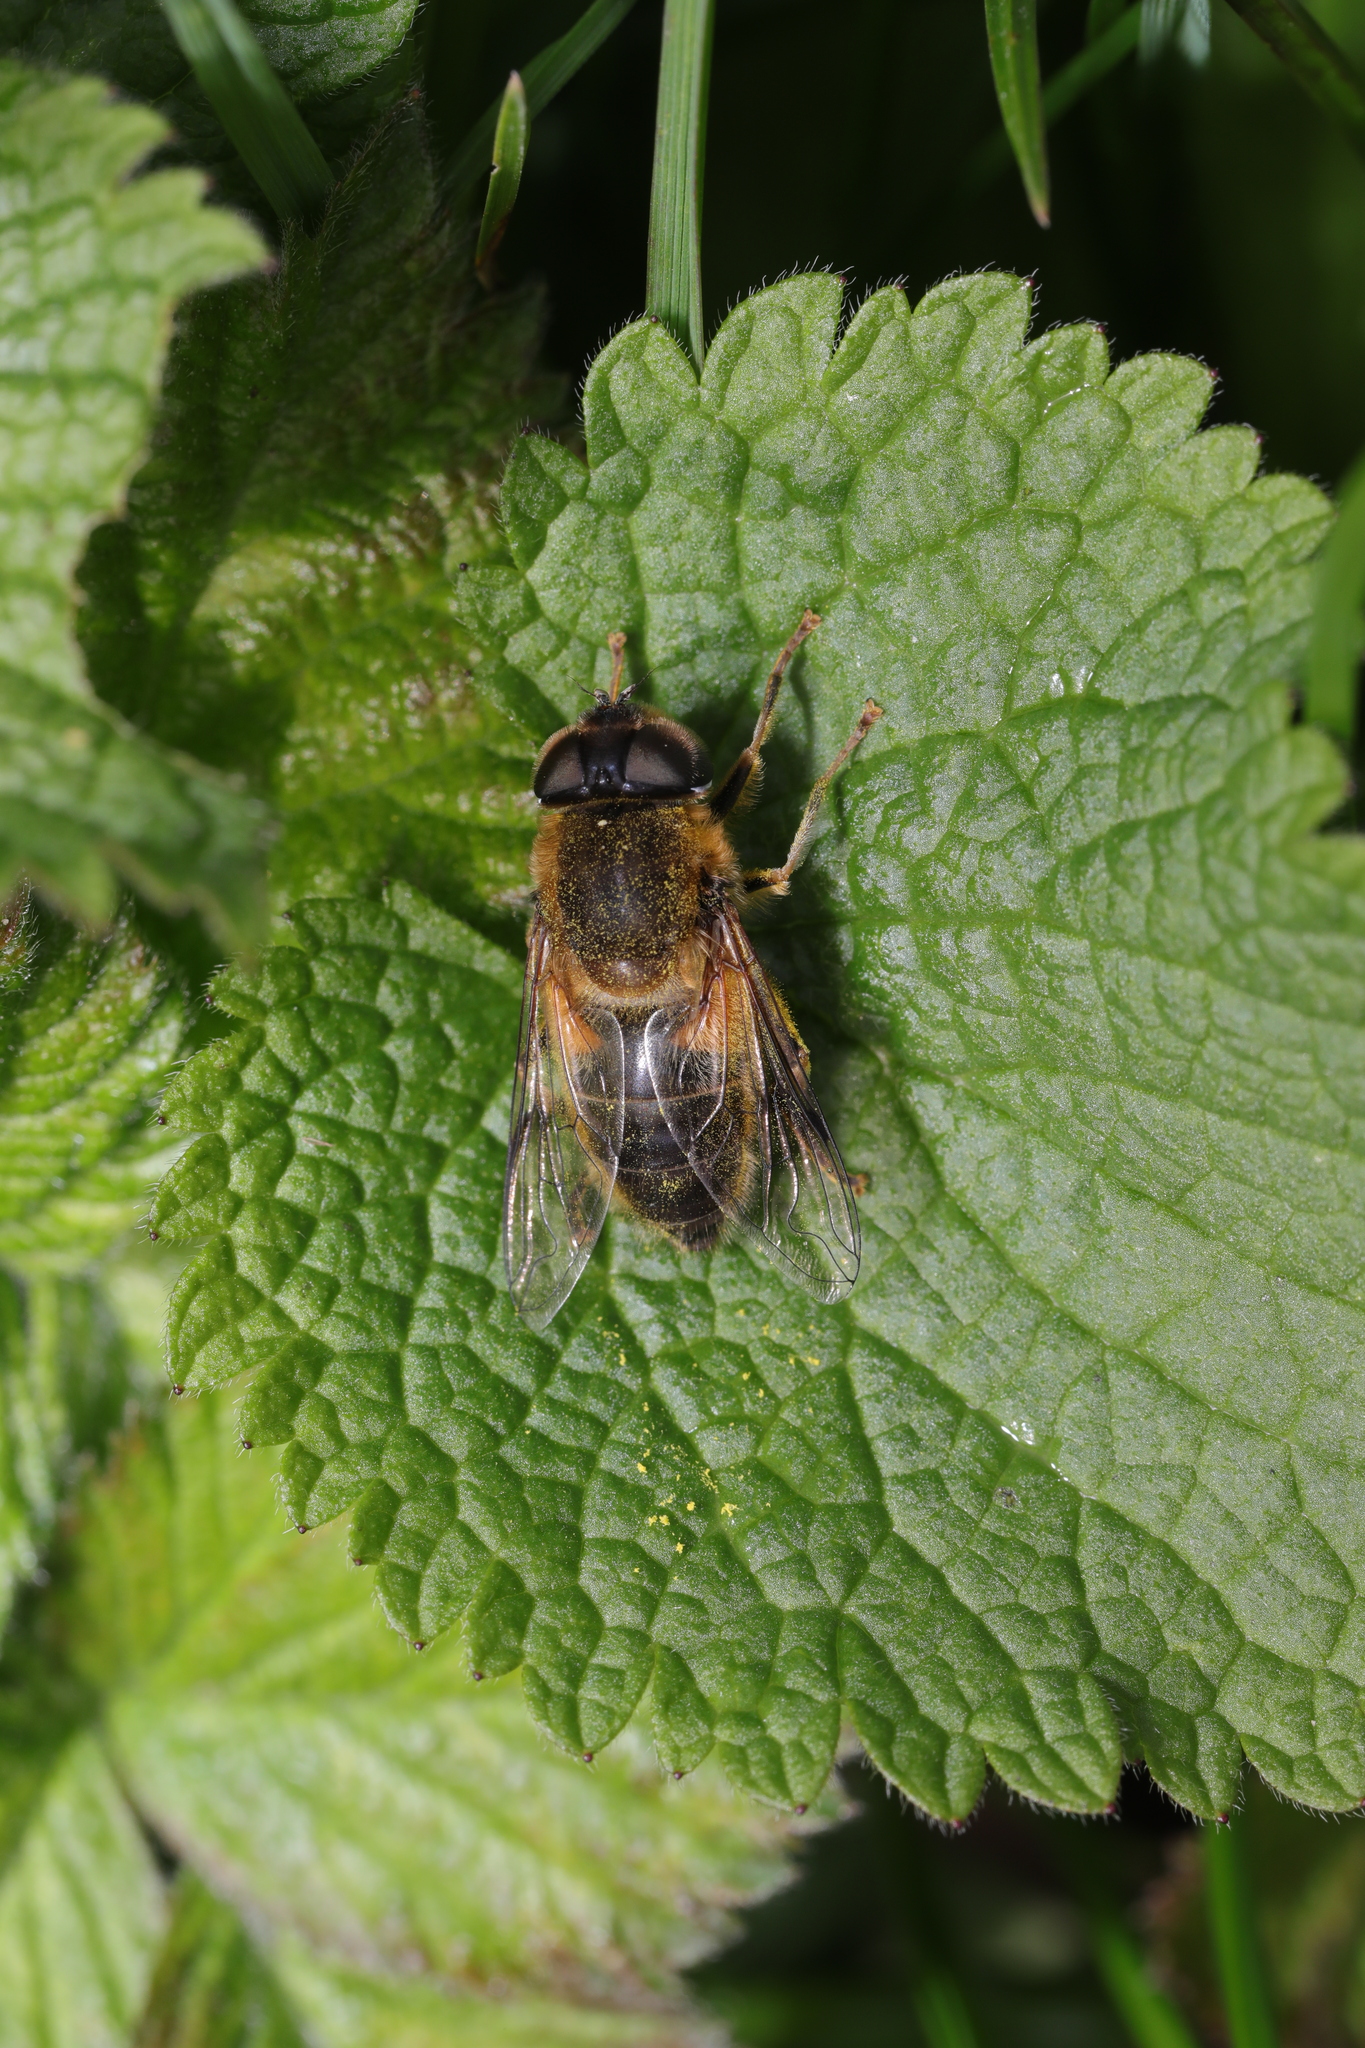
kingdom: Animalia
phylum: Arthropoda
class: Insecta
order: Diptera
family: Syrphidae
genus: Eristalis
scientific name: Eristalis pertinax
